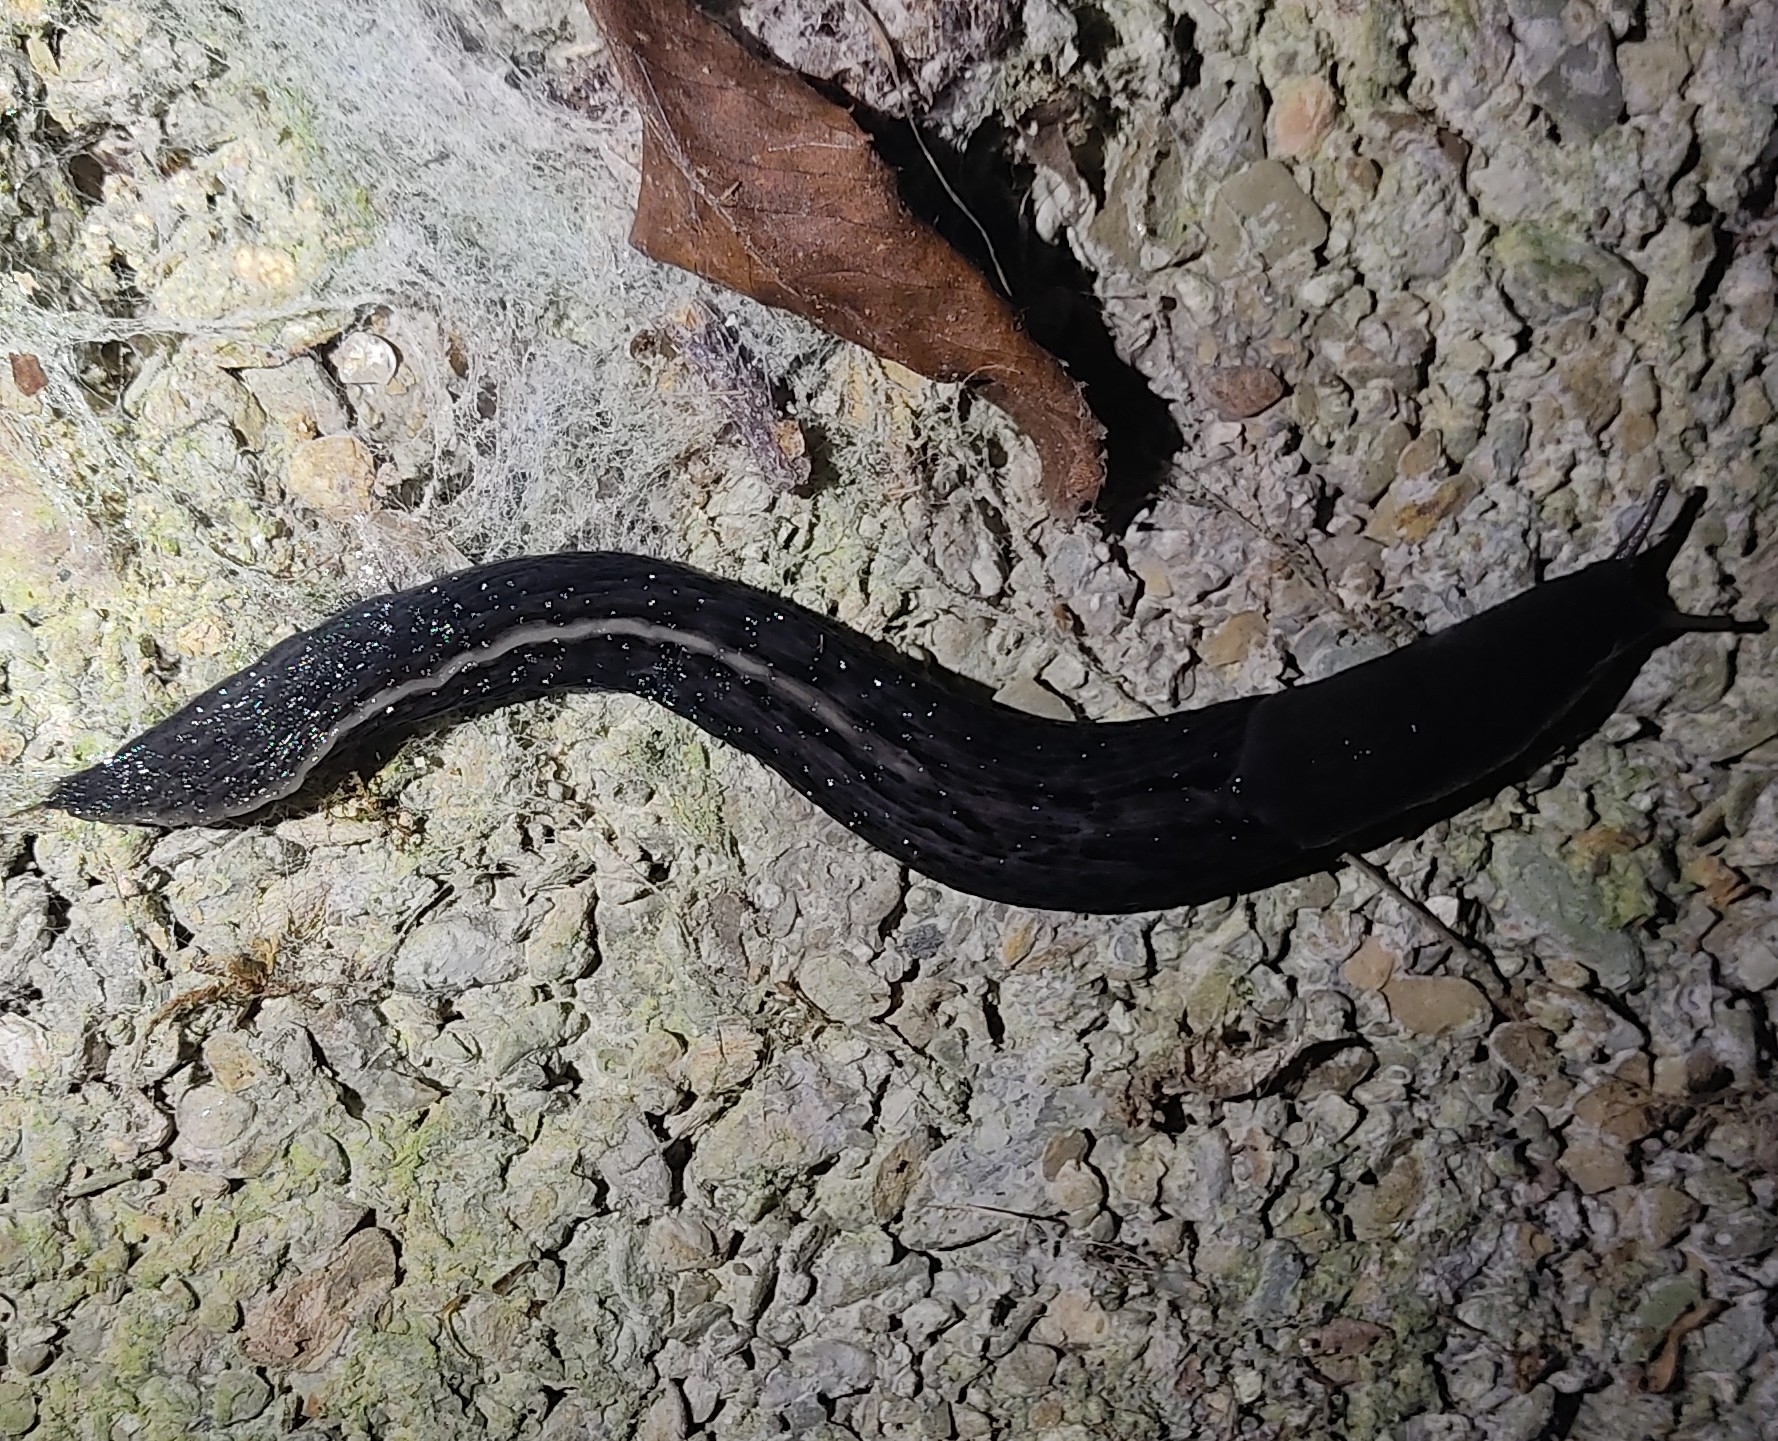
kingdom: Animalia
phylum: Mollusca
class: Gastropoda
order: Stylommatophora
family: Limacidae
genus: Limax
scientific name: Limax cinereoniger
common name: Ash-black slug
